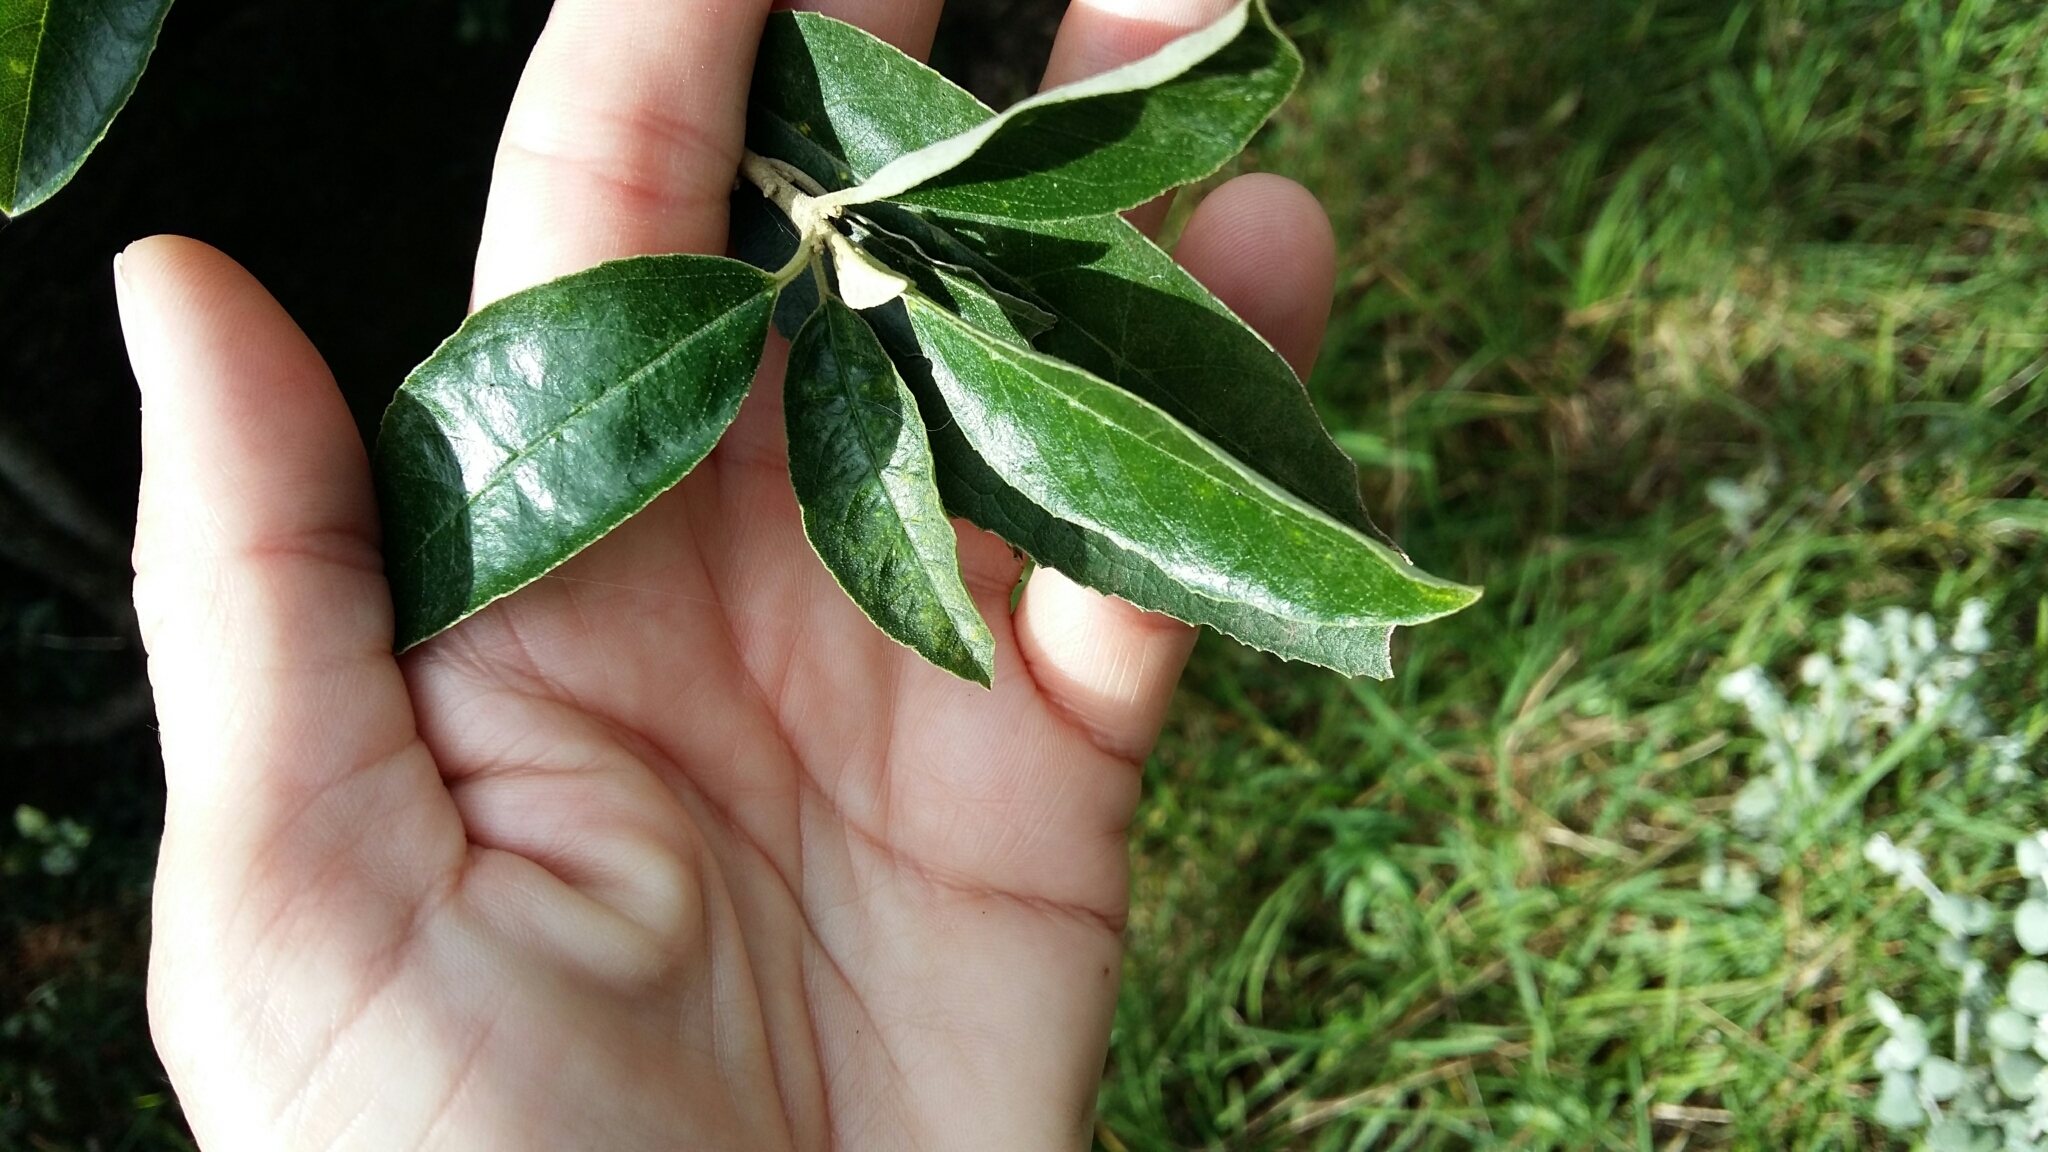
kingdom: Plantae
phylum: Tracheophyta
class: Magnoliopsida
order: Malpighiales
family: Achariaceae
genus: Kiggelaria
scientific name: Kiggelaria africana
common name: Wild peach
